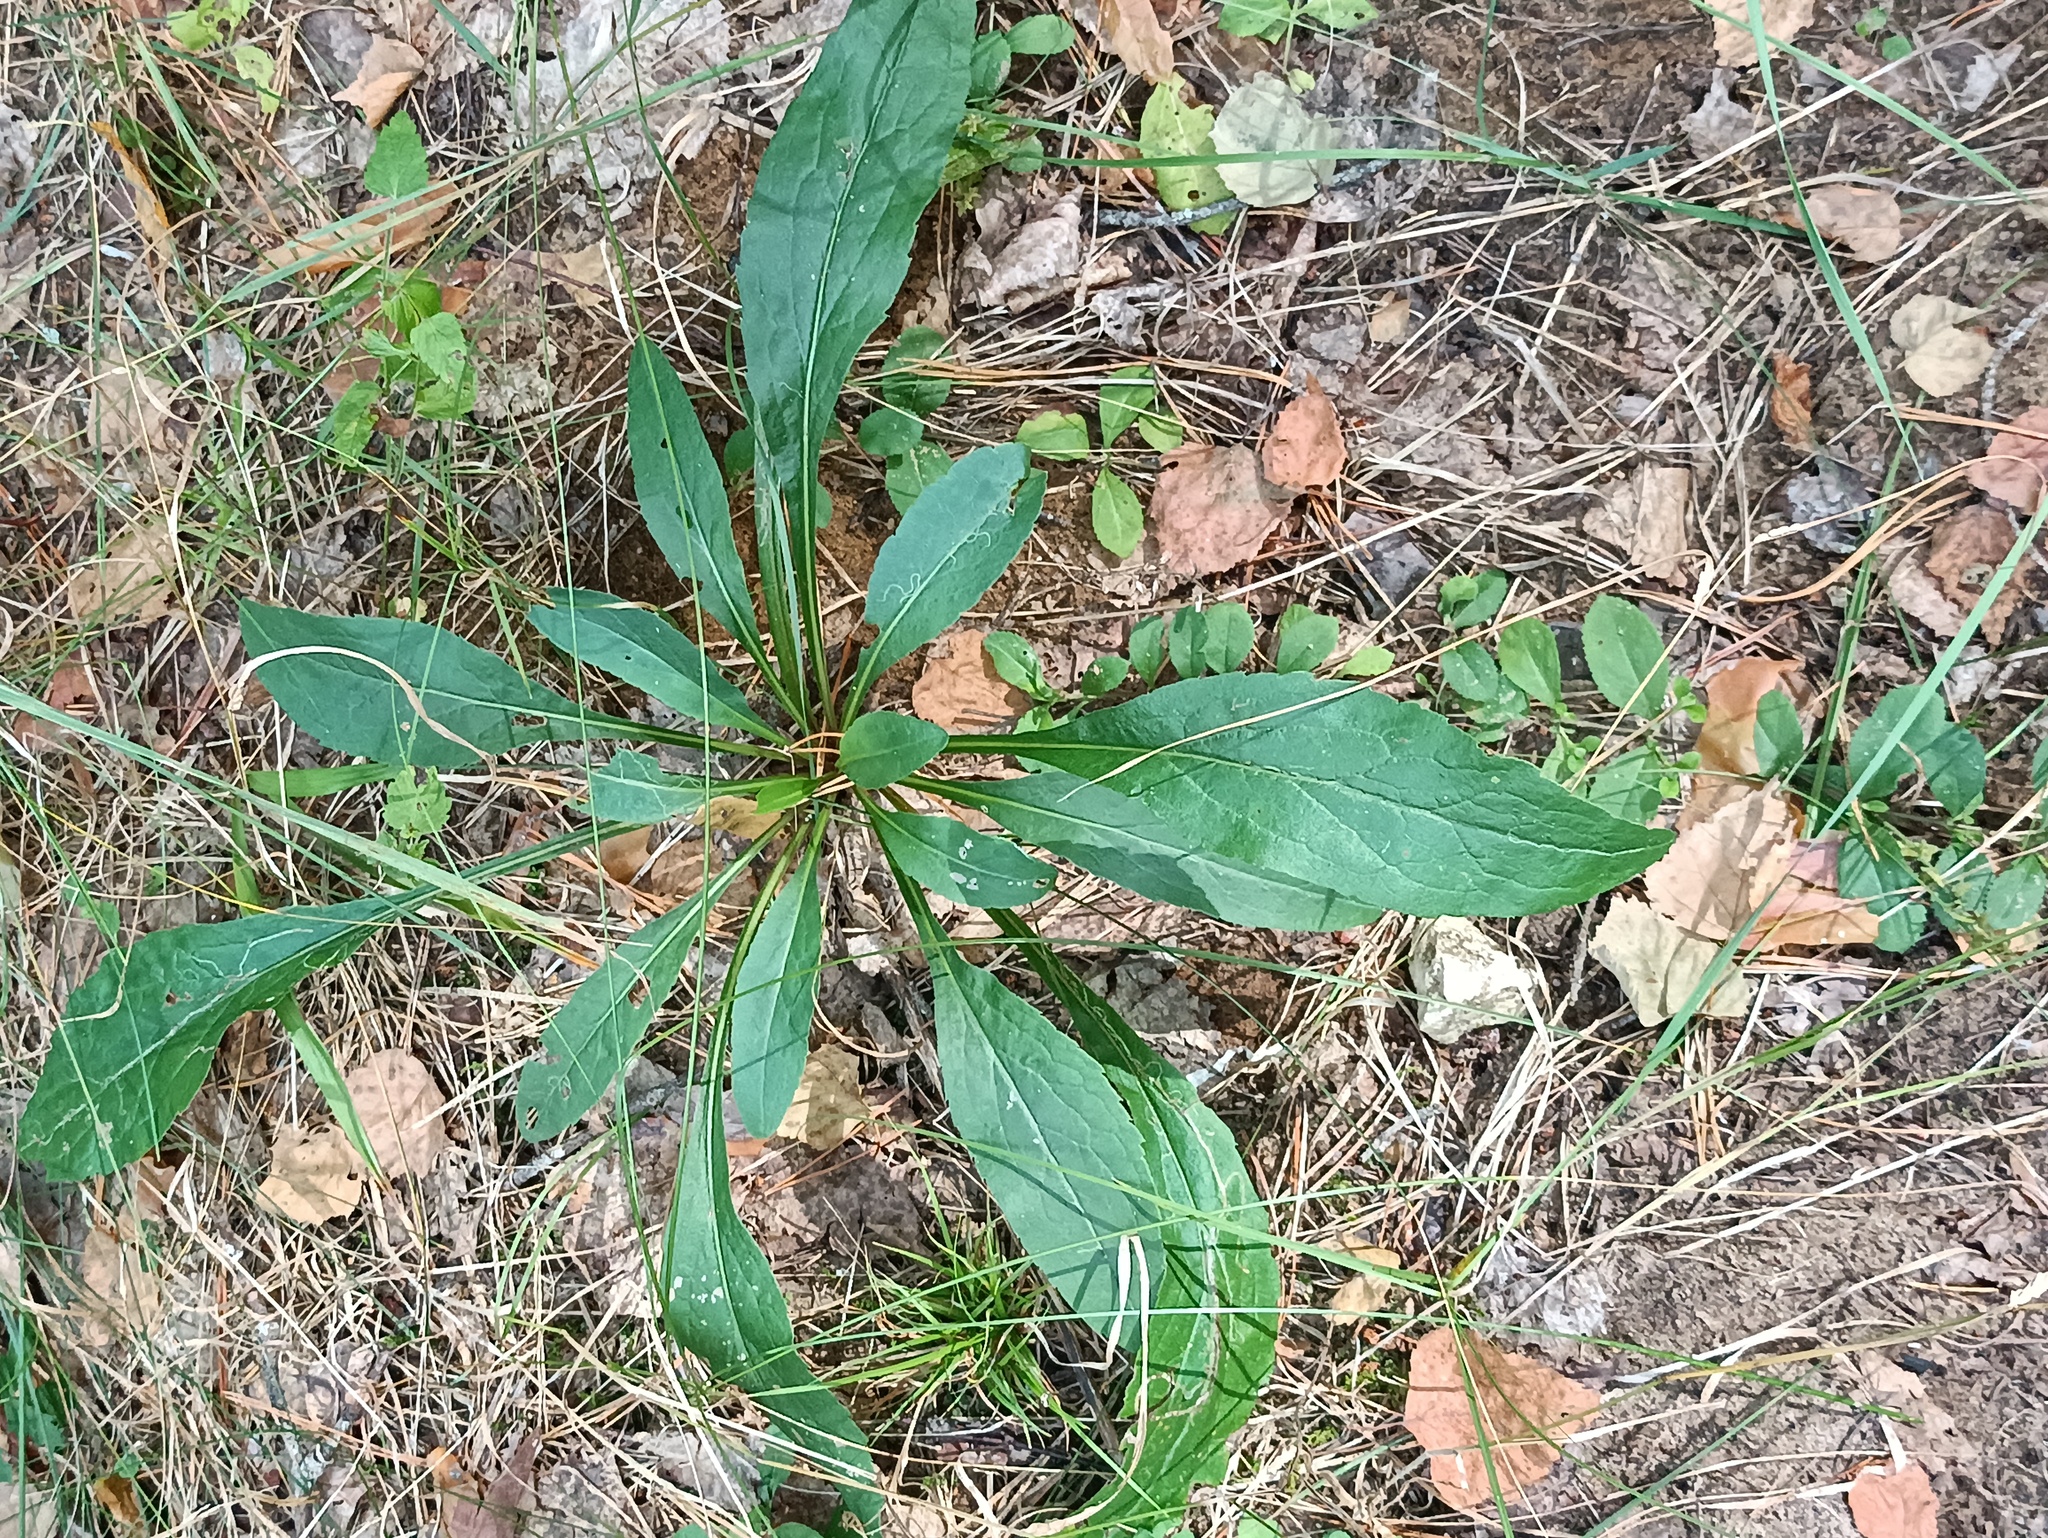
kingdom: Plantae
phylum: Tracheophyta
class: Magnoliopsida
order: Asterales
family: Asteraceae
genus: Solidago
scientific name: Solidago virgaurea
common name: Goldenrod
